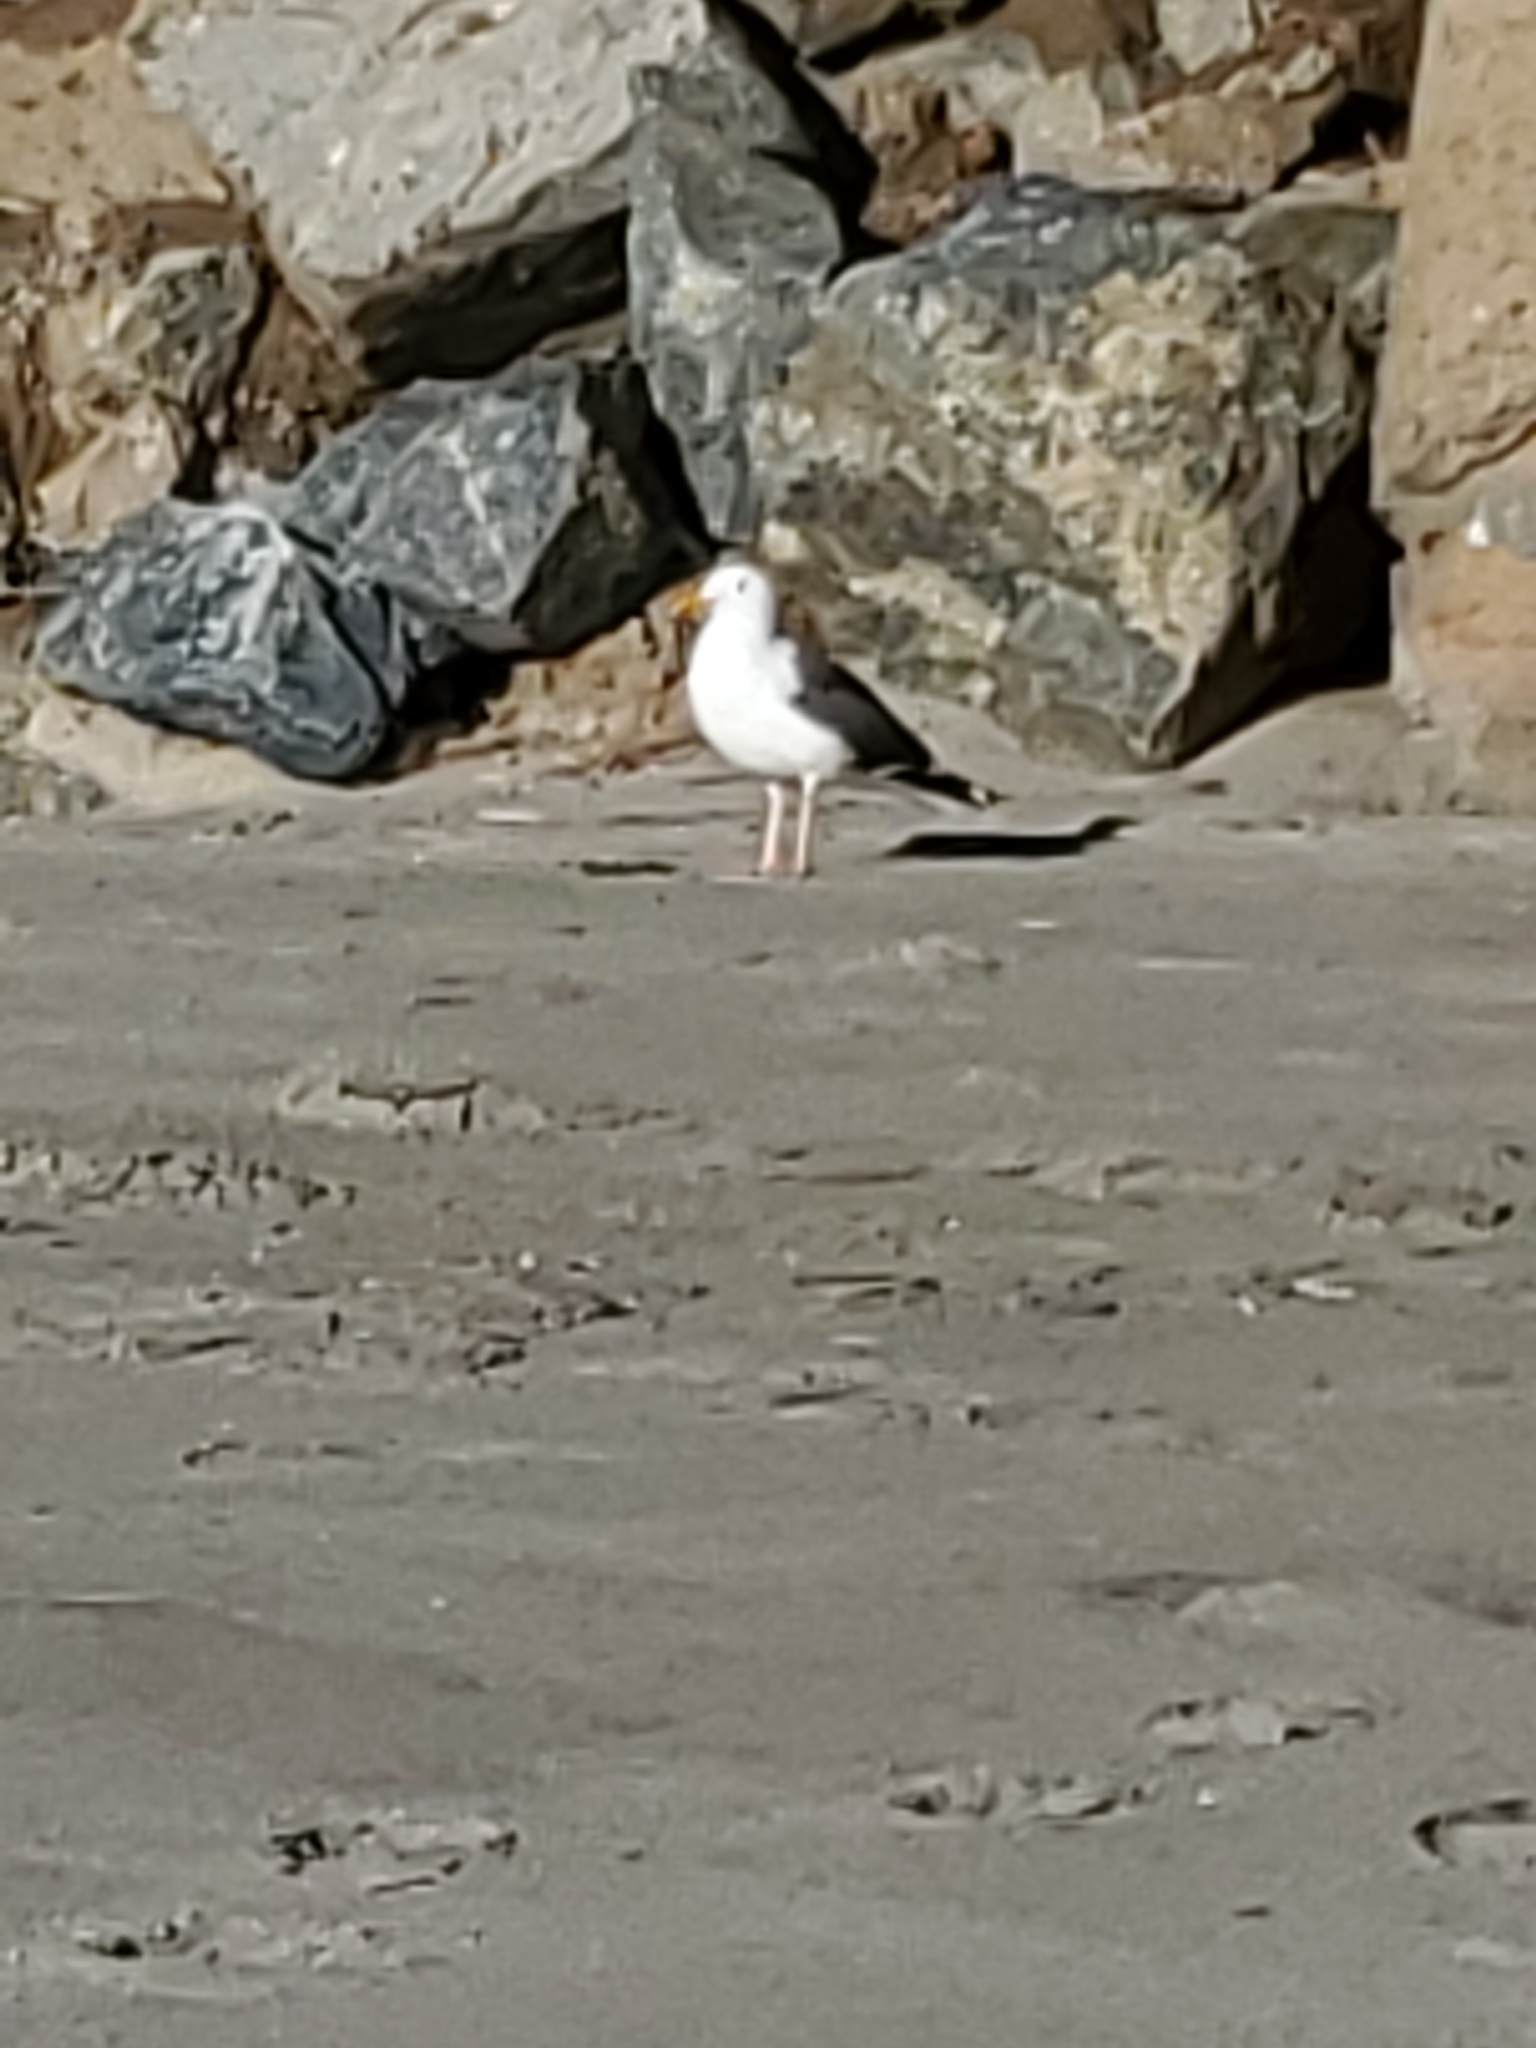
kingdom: Animalia
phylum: Chordata
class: Aves
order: Charadriiformes
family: Laridae
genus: Larus
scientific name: Larus occidentalis
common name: Western gull
